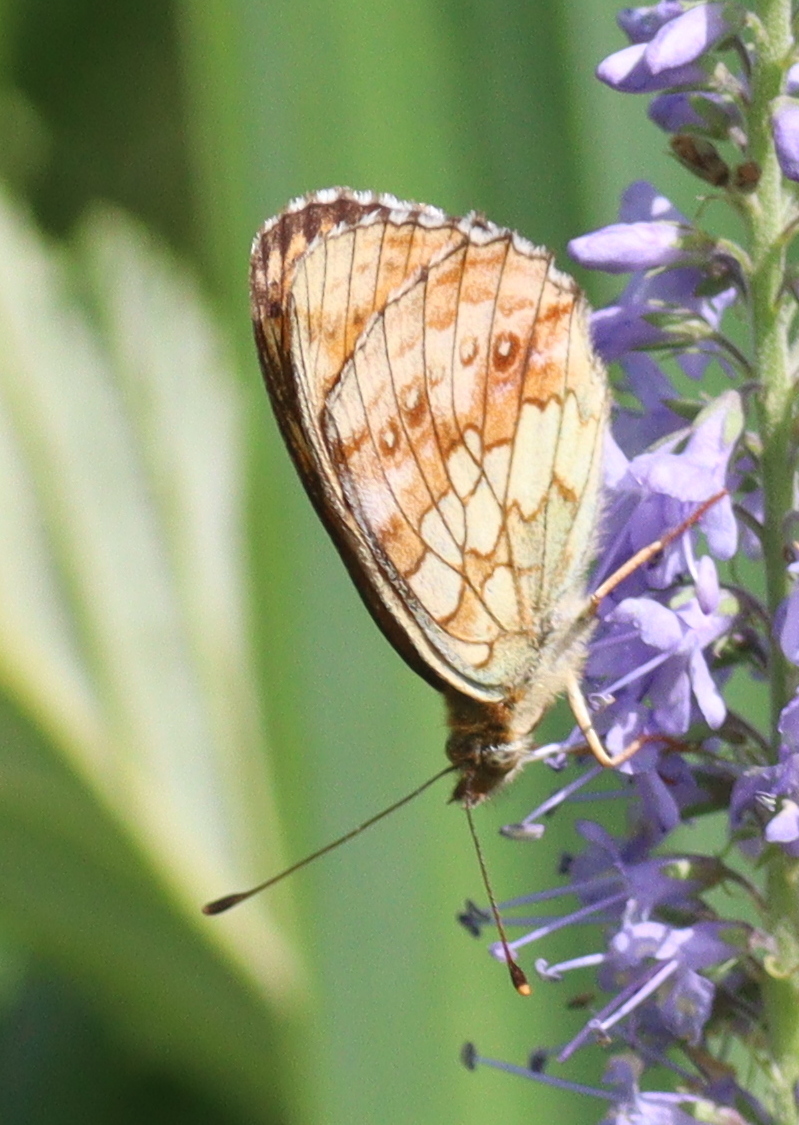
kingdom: Animalia
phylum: Arthropoda
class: Insecta
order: Lepidoptera
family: Nymphalidae
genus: Brenthis
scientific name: Brenthis ino
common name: Lesser marbled fritillary
